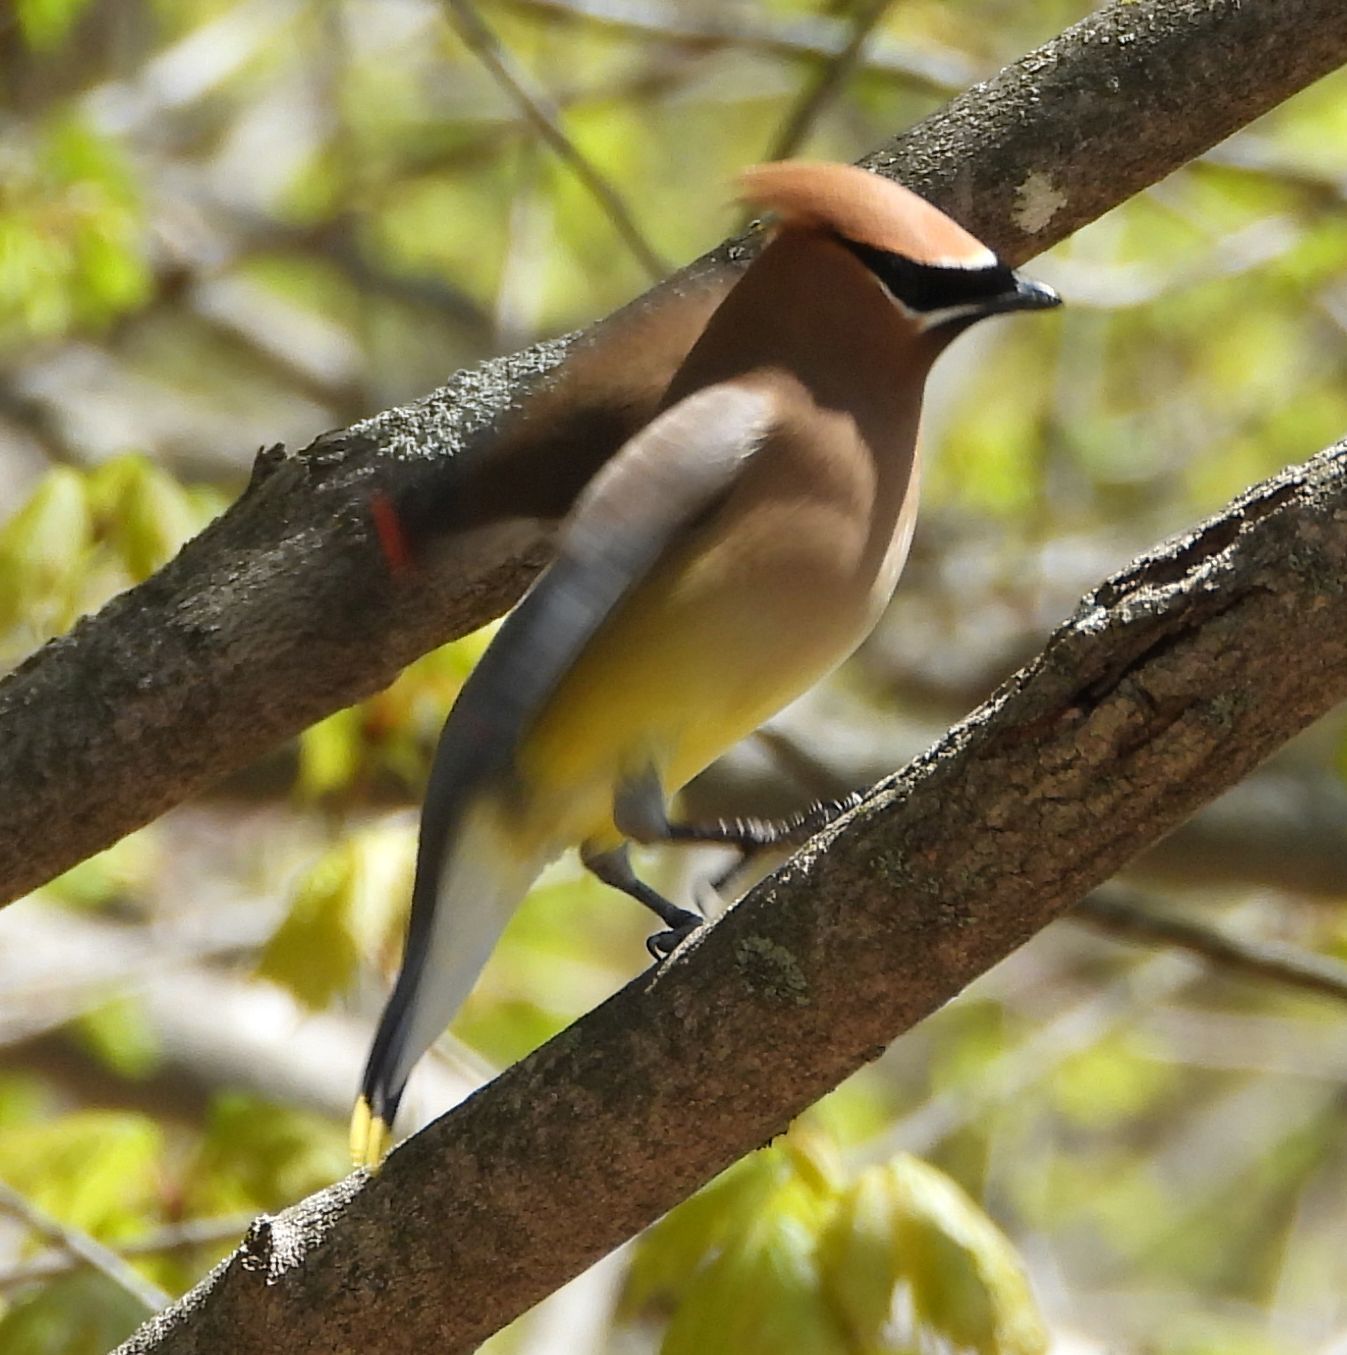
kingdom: Animalia
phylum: Chordata
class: Aves
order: Passeriformes
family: Bombycillidae
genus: Bombycilla
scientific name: Bombycilla cedrorum
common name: Cedar waxwing
